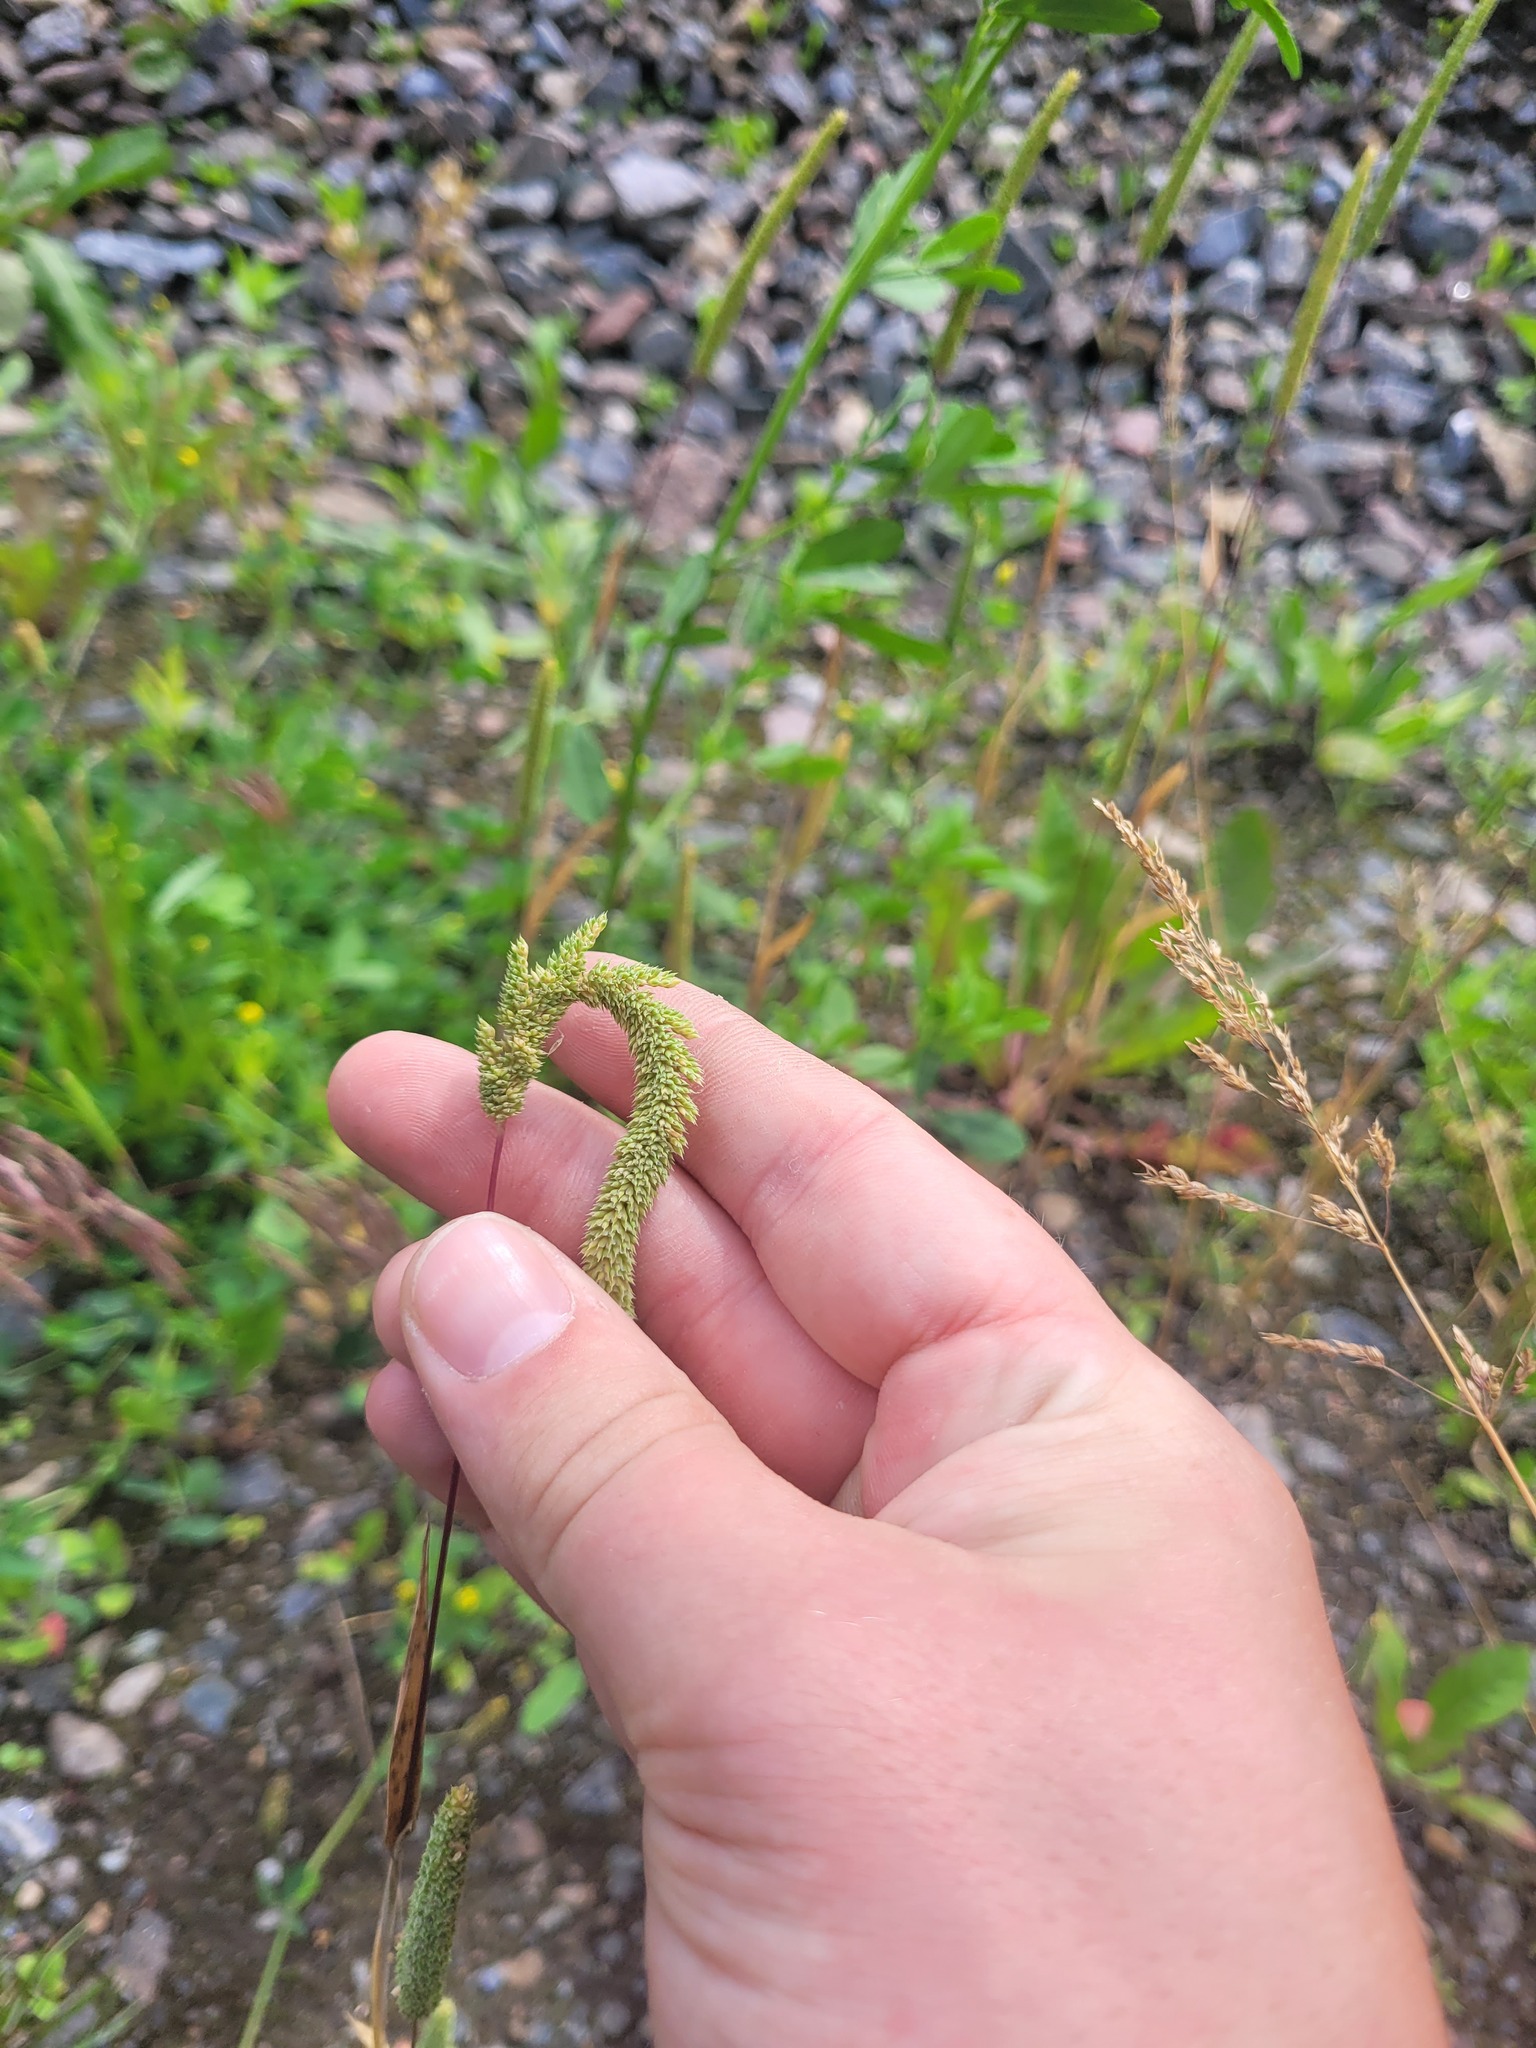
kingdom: Plantae
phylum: Tracheophyta
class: Liliopsida
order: Poales
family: Poaceae
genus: Phleum
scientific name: Phleum paniculatum
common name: British timothy
